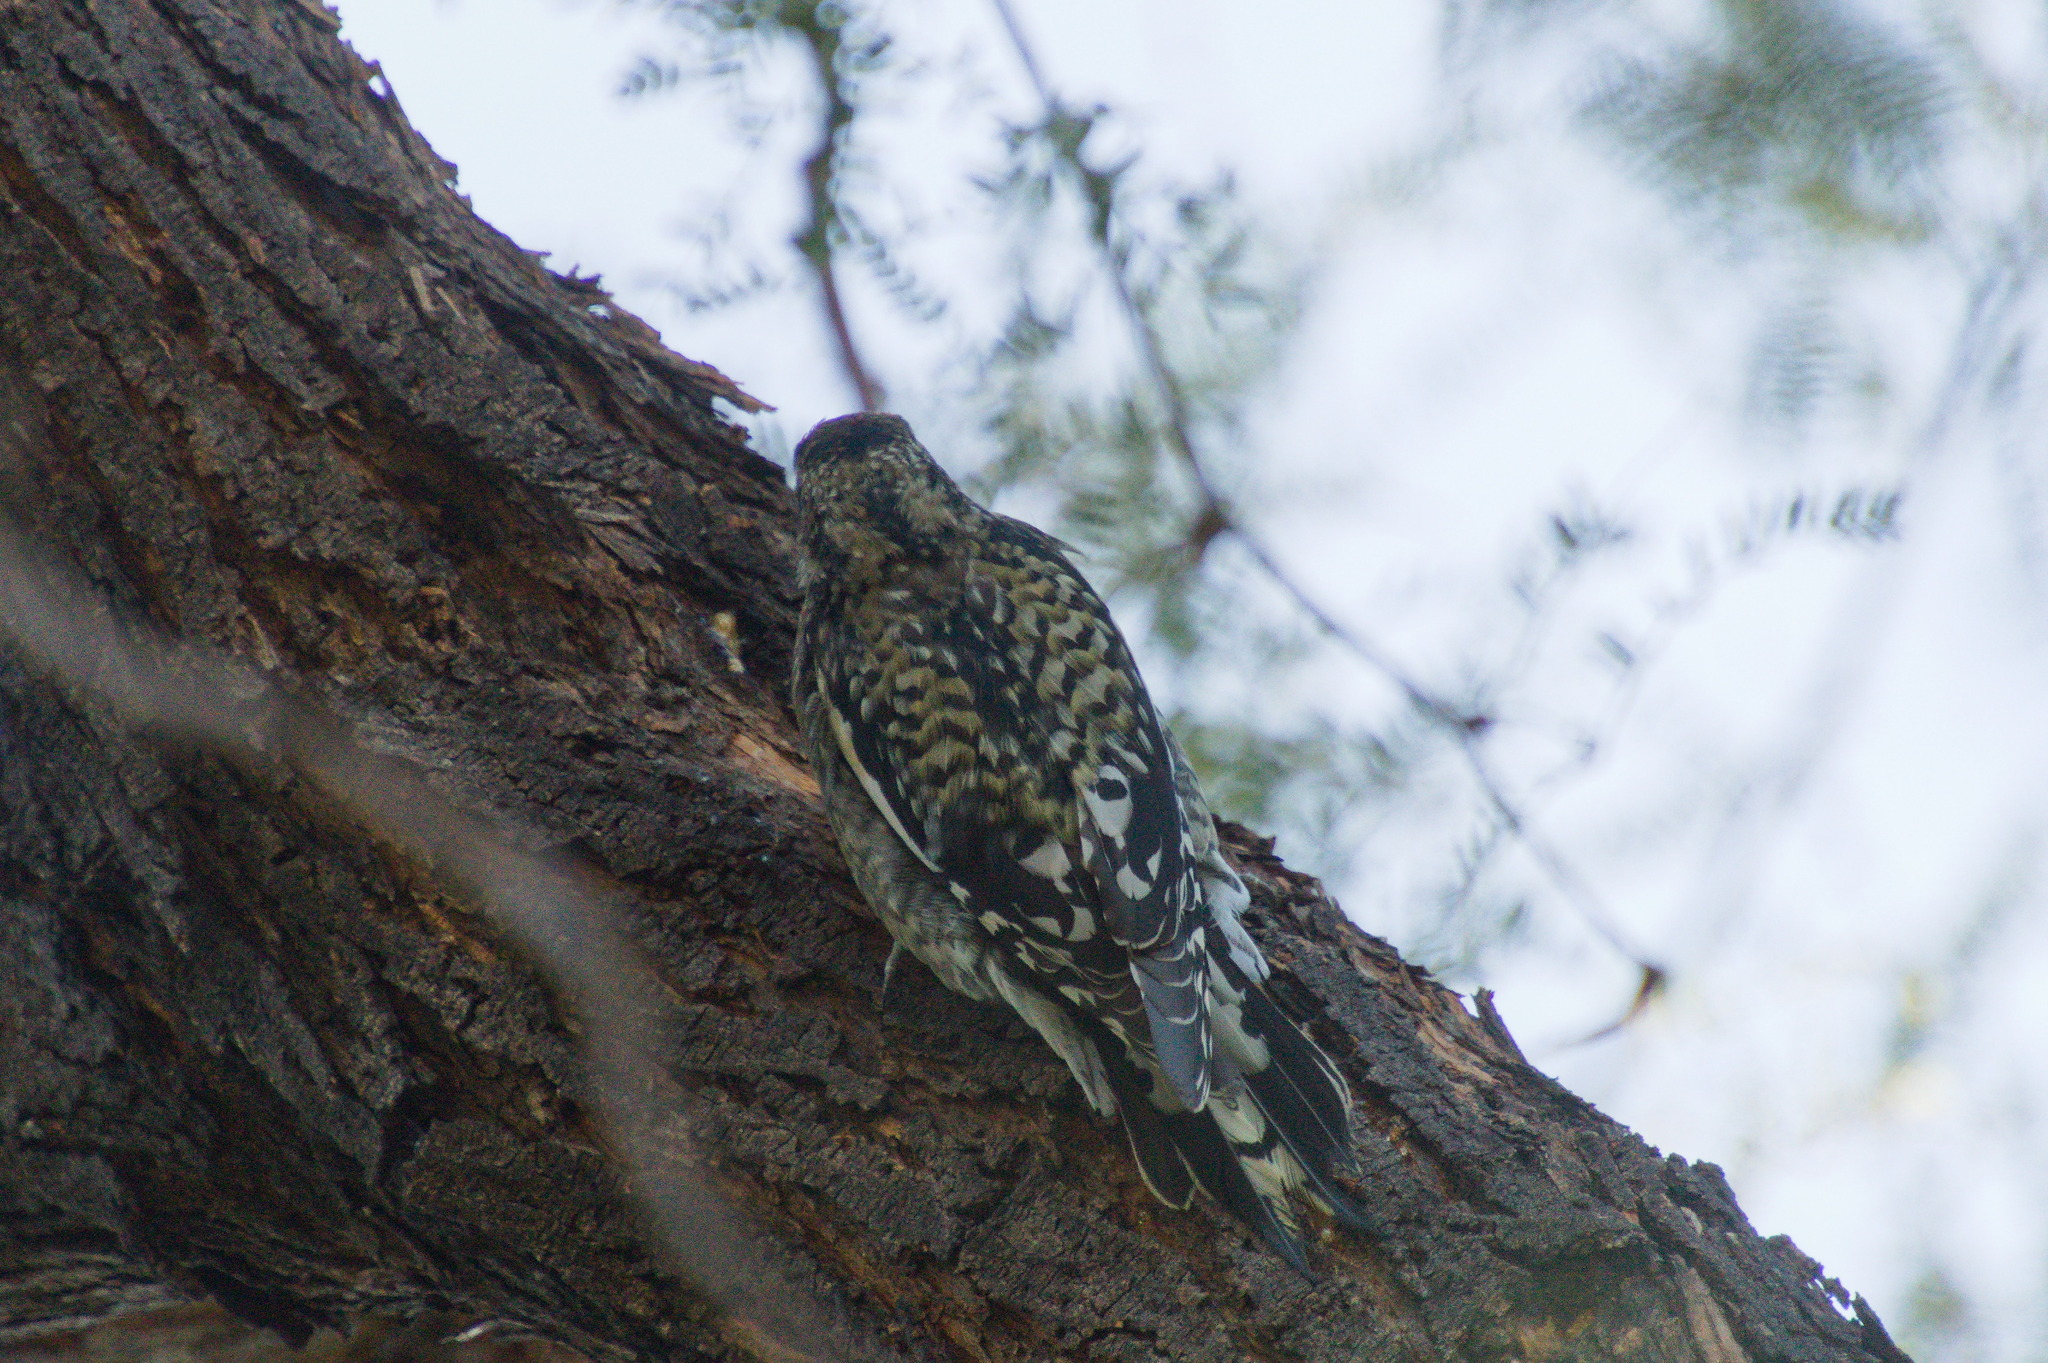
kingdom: Animalia
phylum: Chordata
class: Aves
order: Piciformes
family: Picidae
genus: Sphyrapicus
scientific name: Sphyrapicus varius
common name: Yellow-bellied sapsucker
